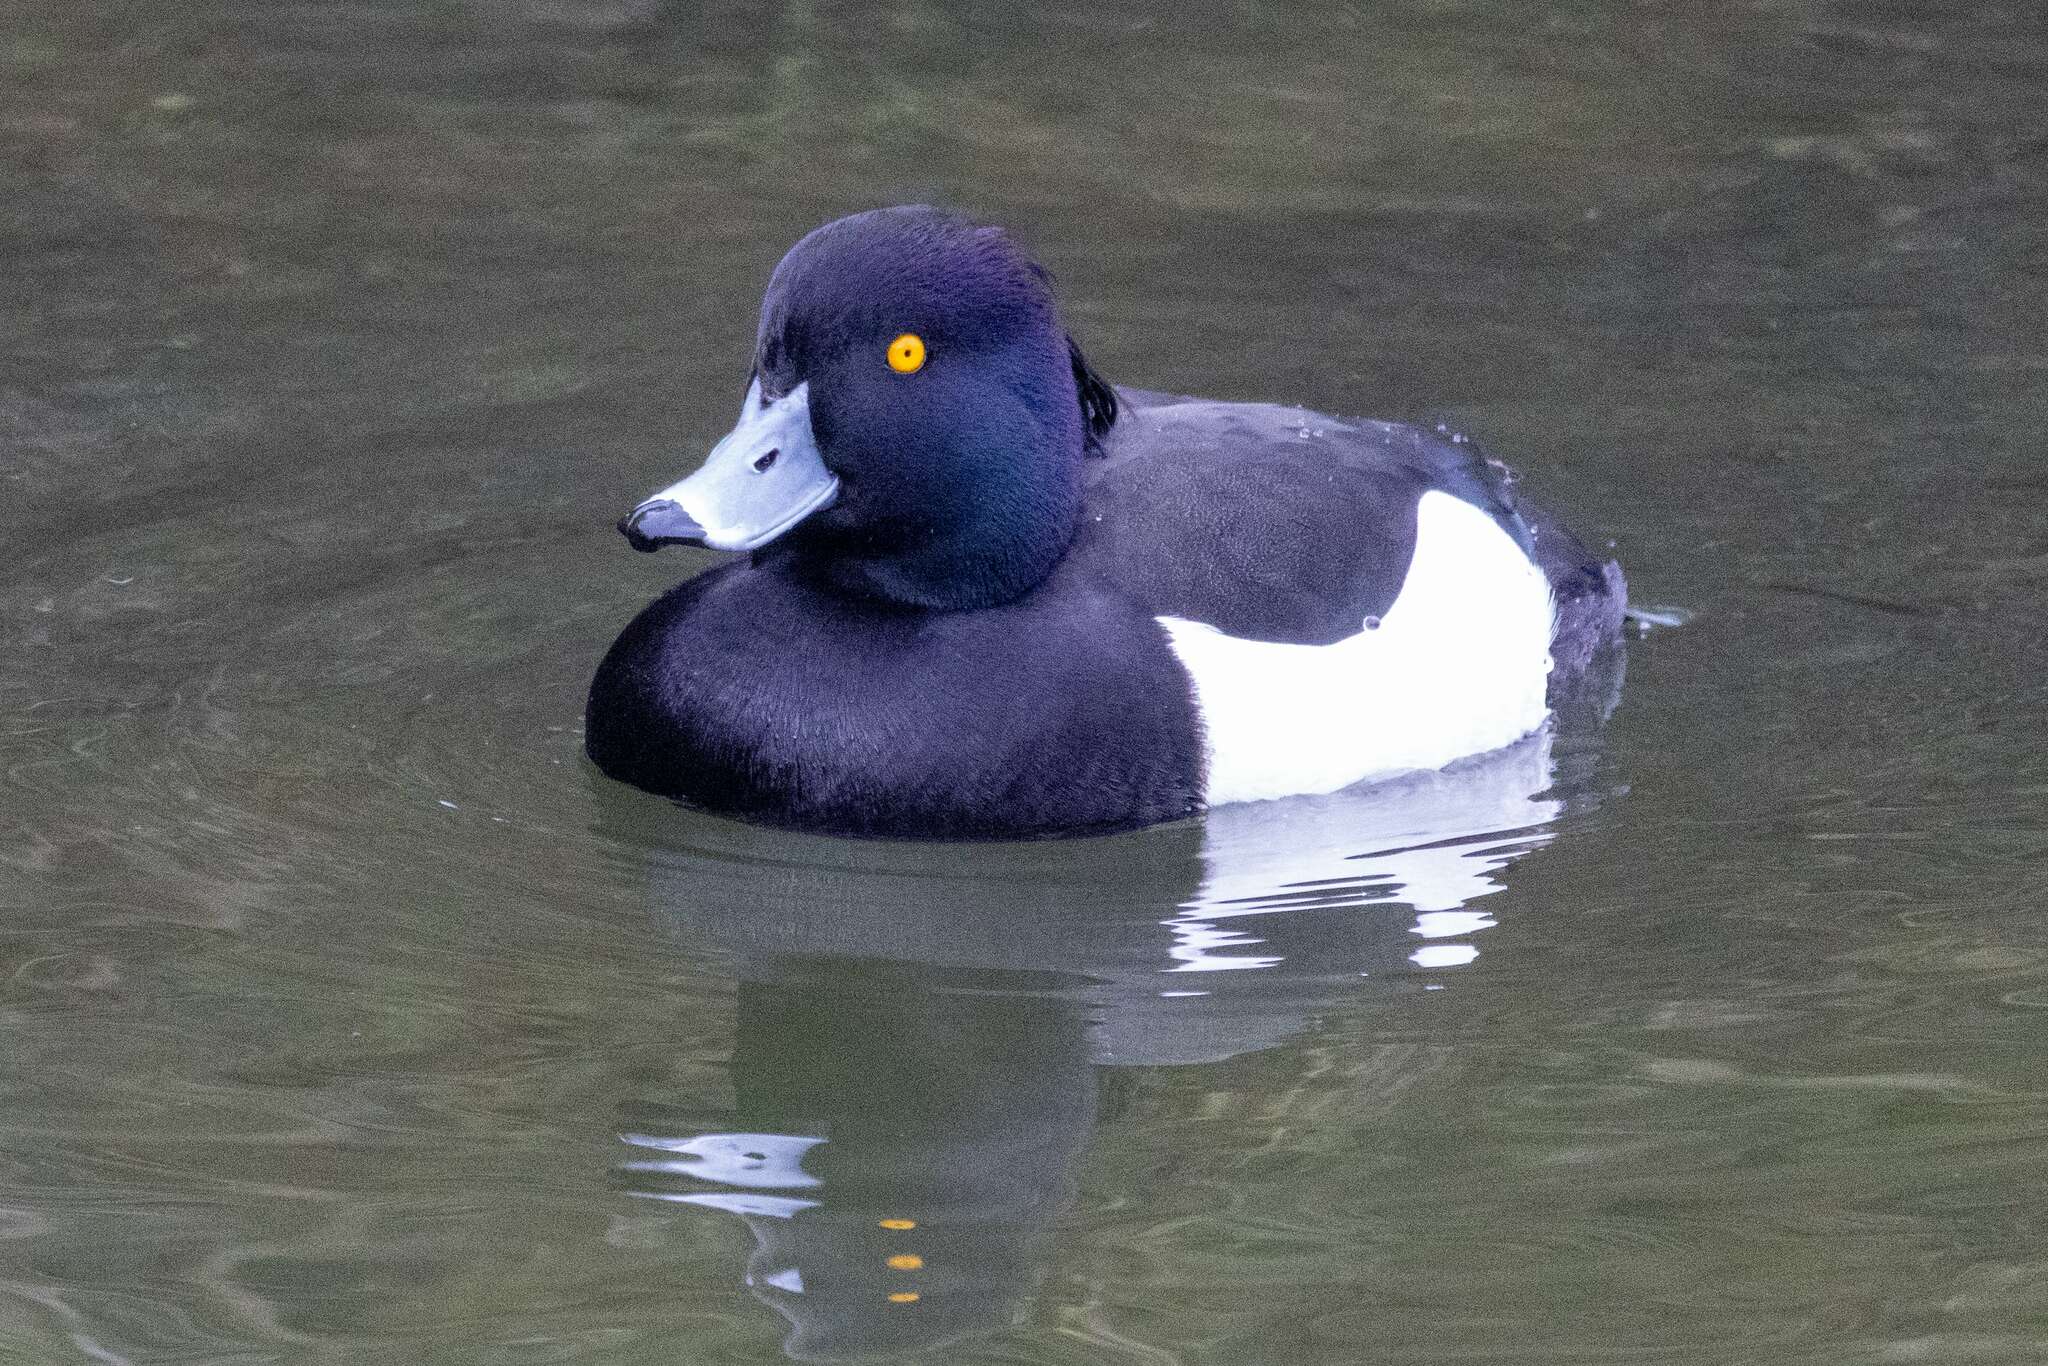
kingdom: Animalia
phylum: Chordata
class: Aves
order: Anseriformes
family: Anatidae
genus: Aythya
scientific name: Aythya fuligula
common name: Tufted duck
